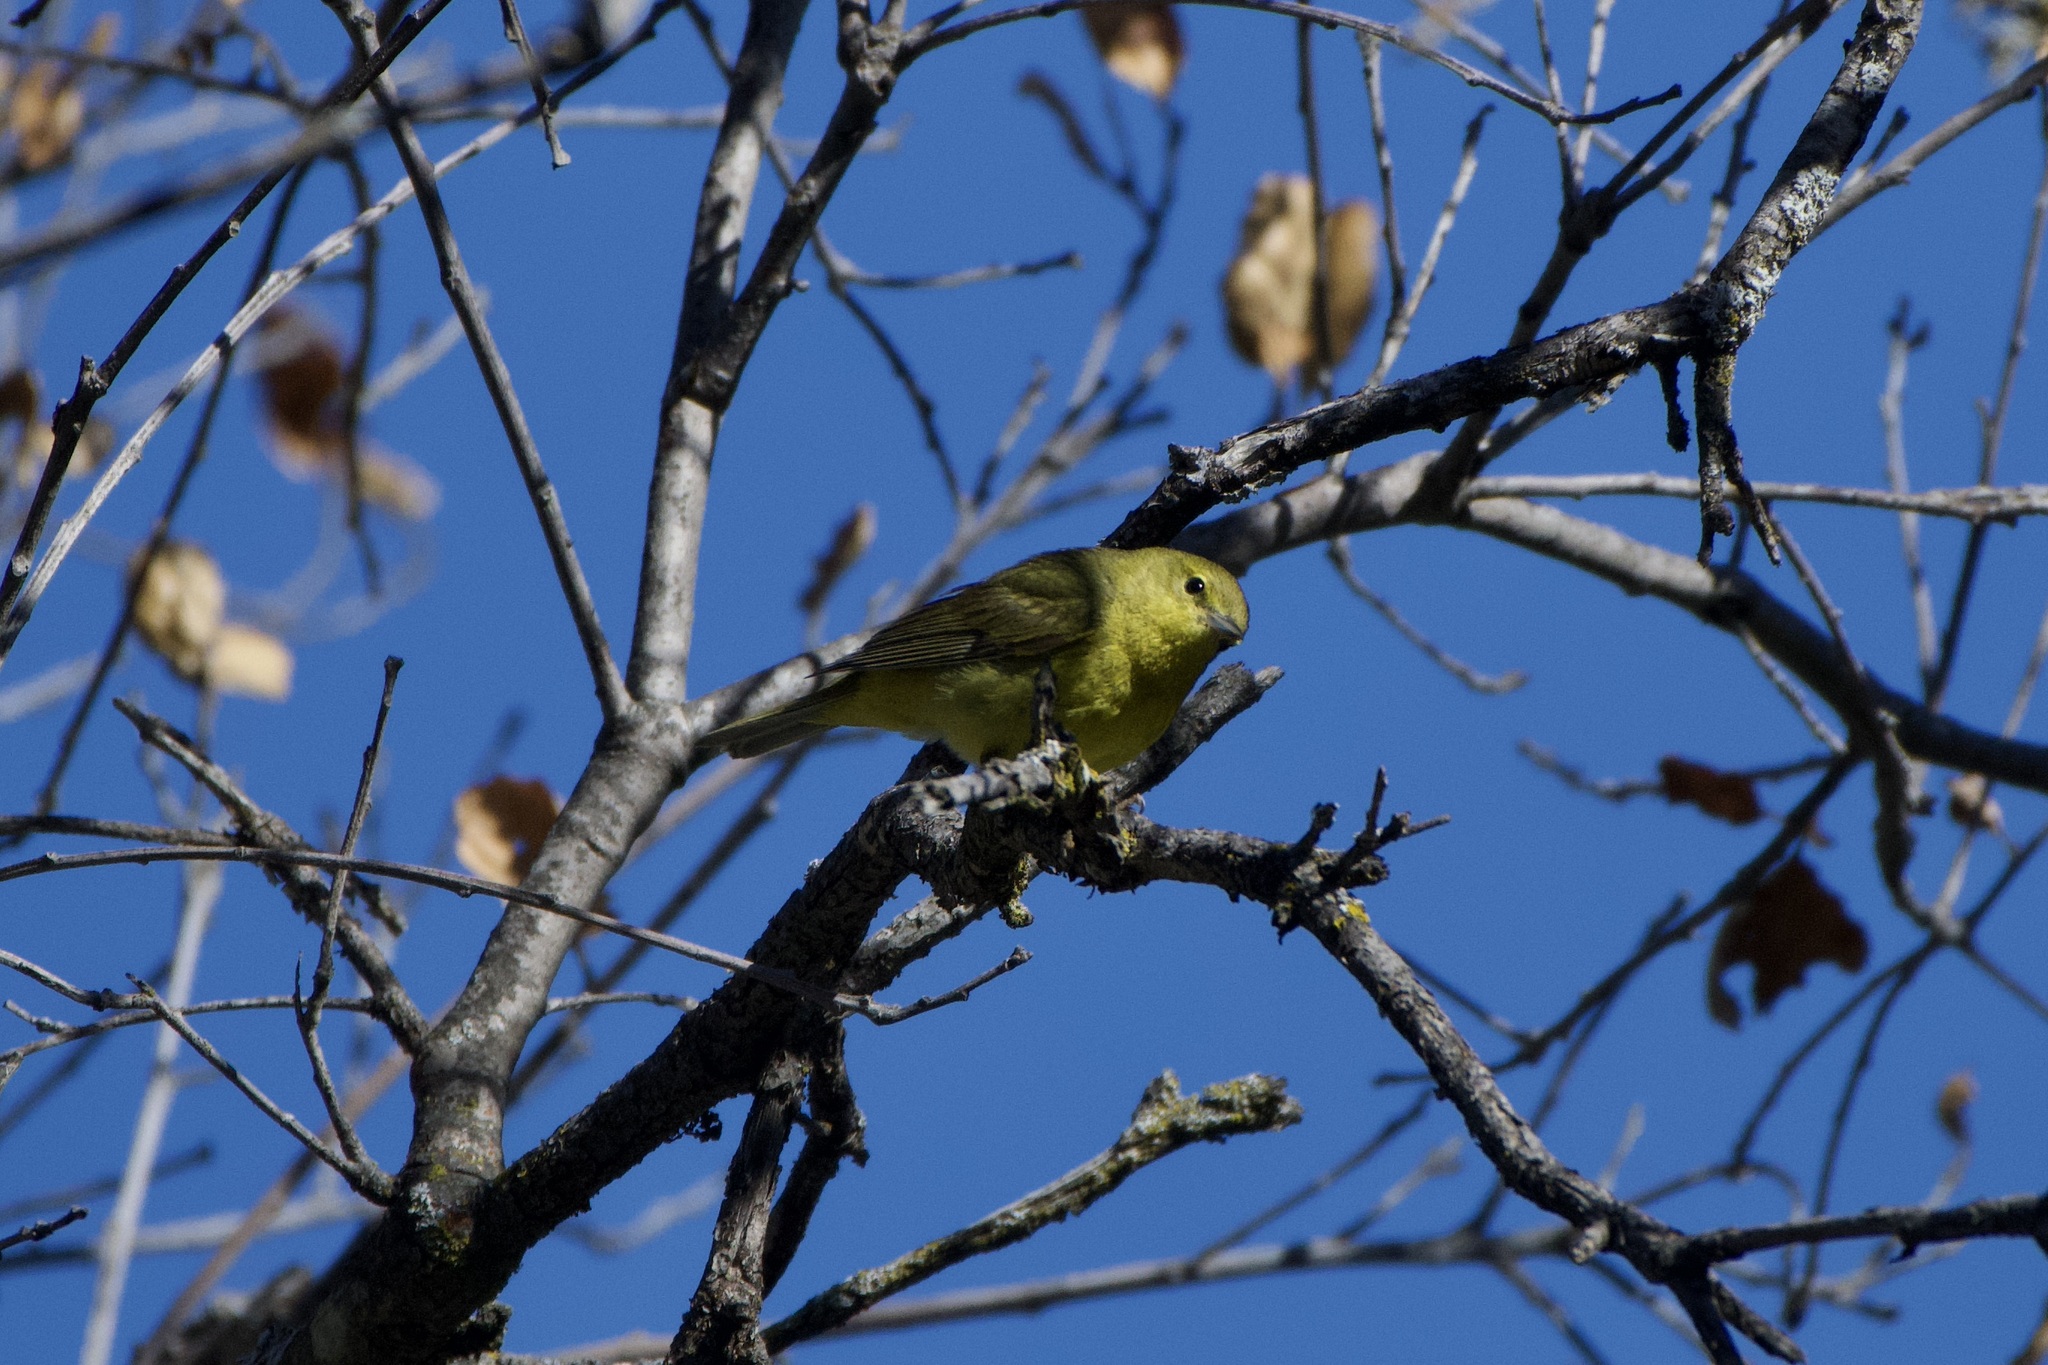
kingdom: Animalia
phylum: Chordata
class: Aves
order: Passeriformes
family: Parulidae
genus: Leiothlypis
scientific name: Leiothlypis celata
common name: Orange-crowned warbler
